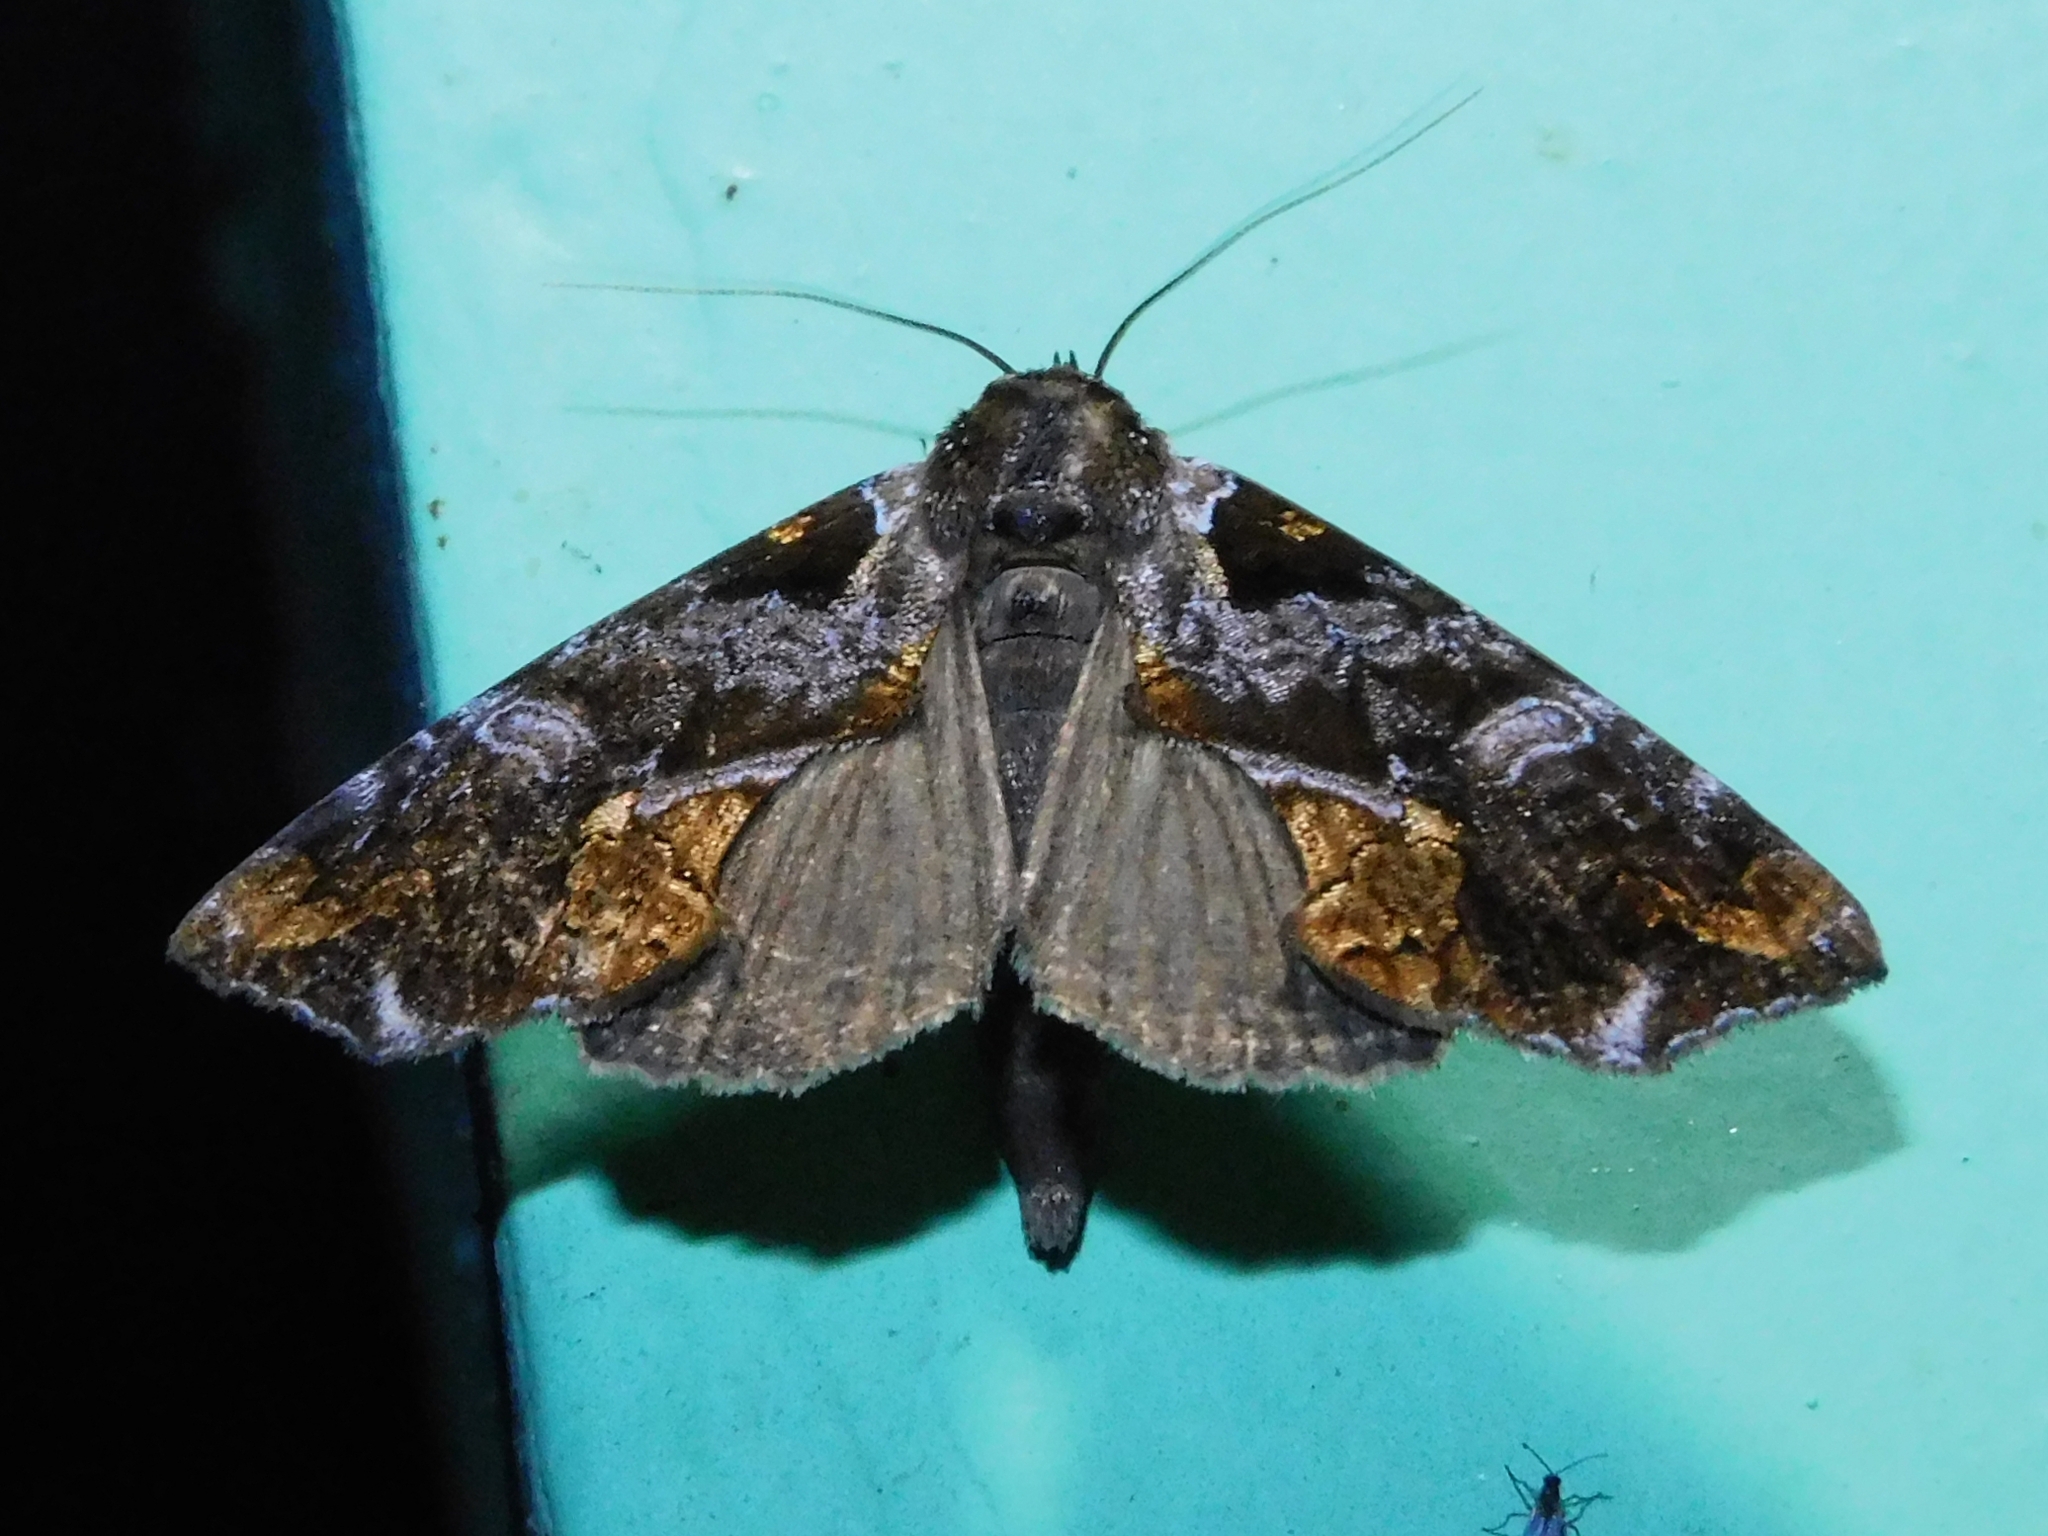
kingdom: Animalia
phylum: Arthropoda
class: Insecta
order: Lepidoptera
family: Erebidae
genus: Plusiodonta
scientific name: Plusiodonta auripicta
